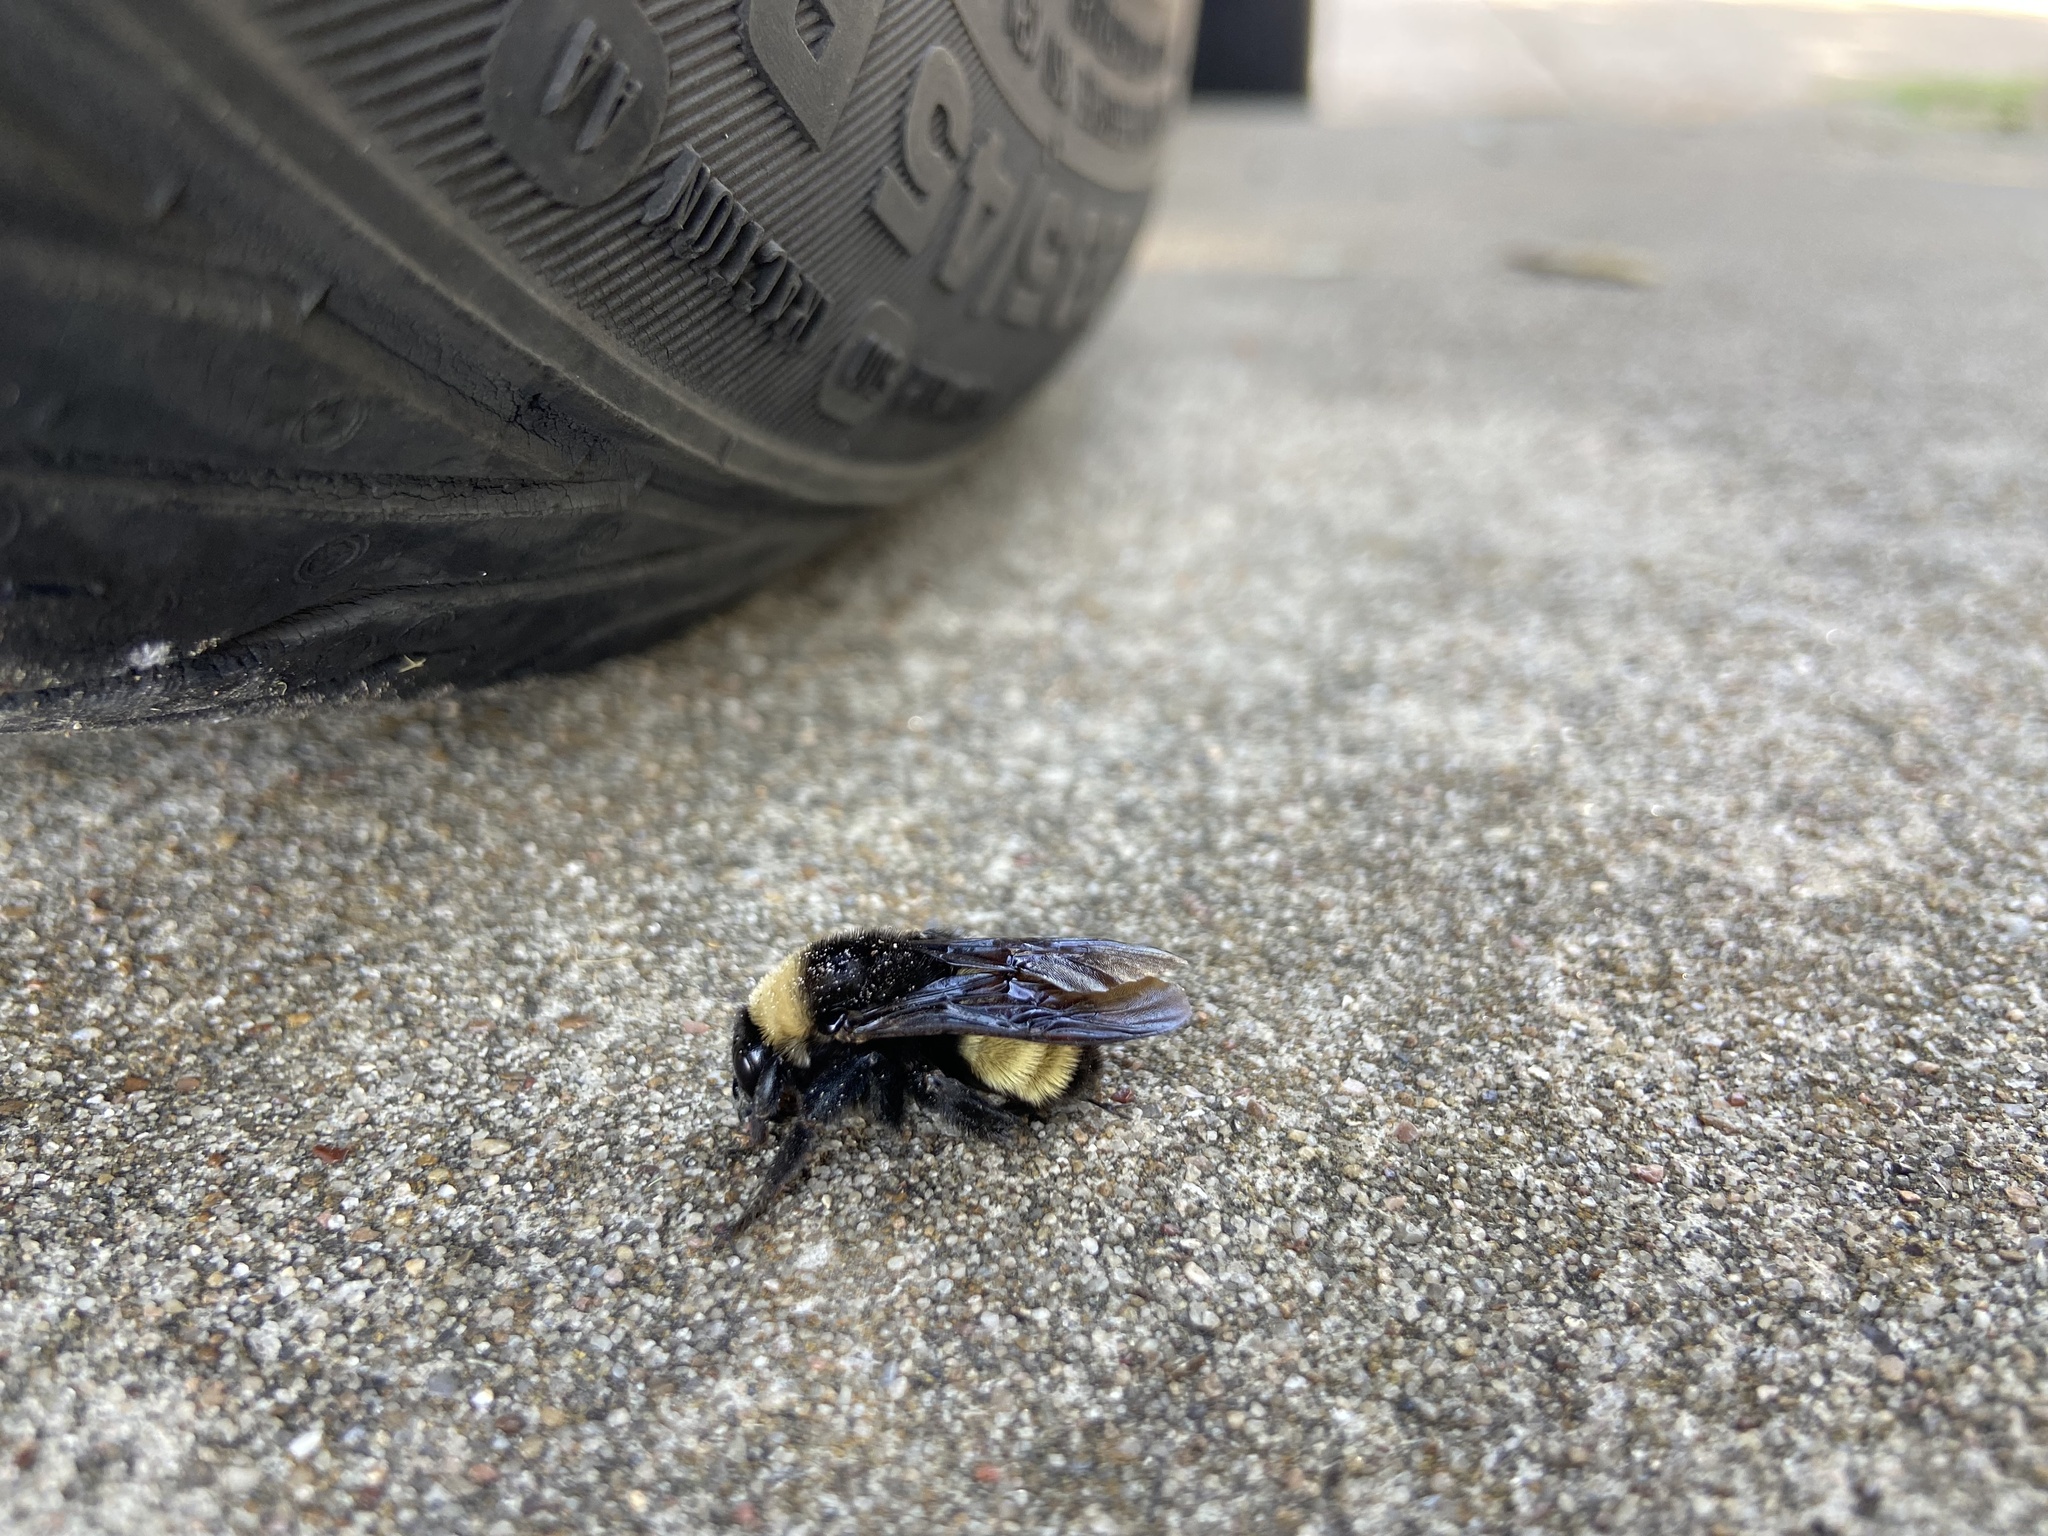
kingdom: Animalia
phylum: Arthropoda
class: Insecta
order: Hymenoptera
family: Apidae
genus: Bombus
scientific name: Bombus pensylvanicus
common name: Bumble bee
